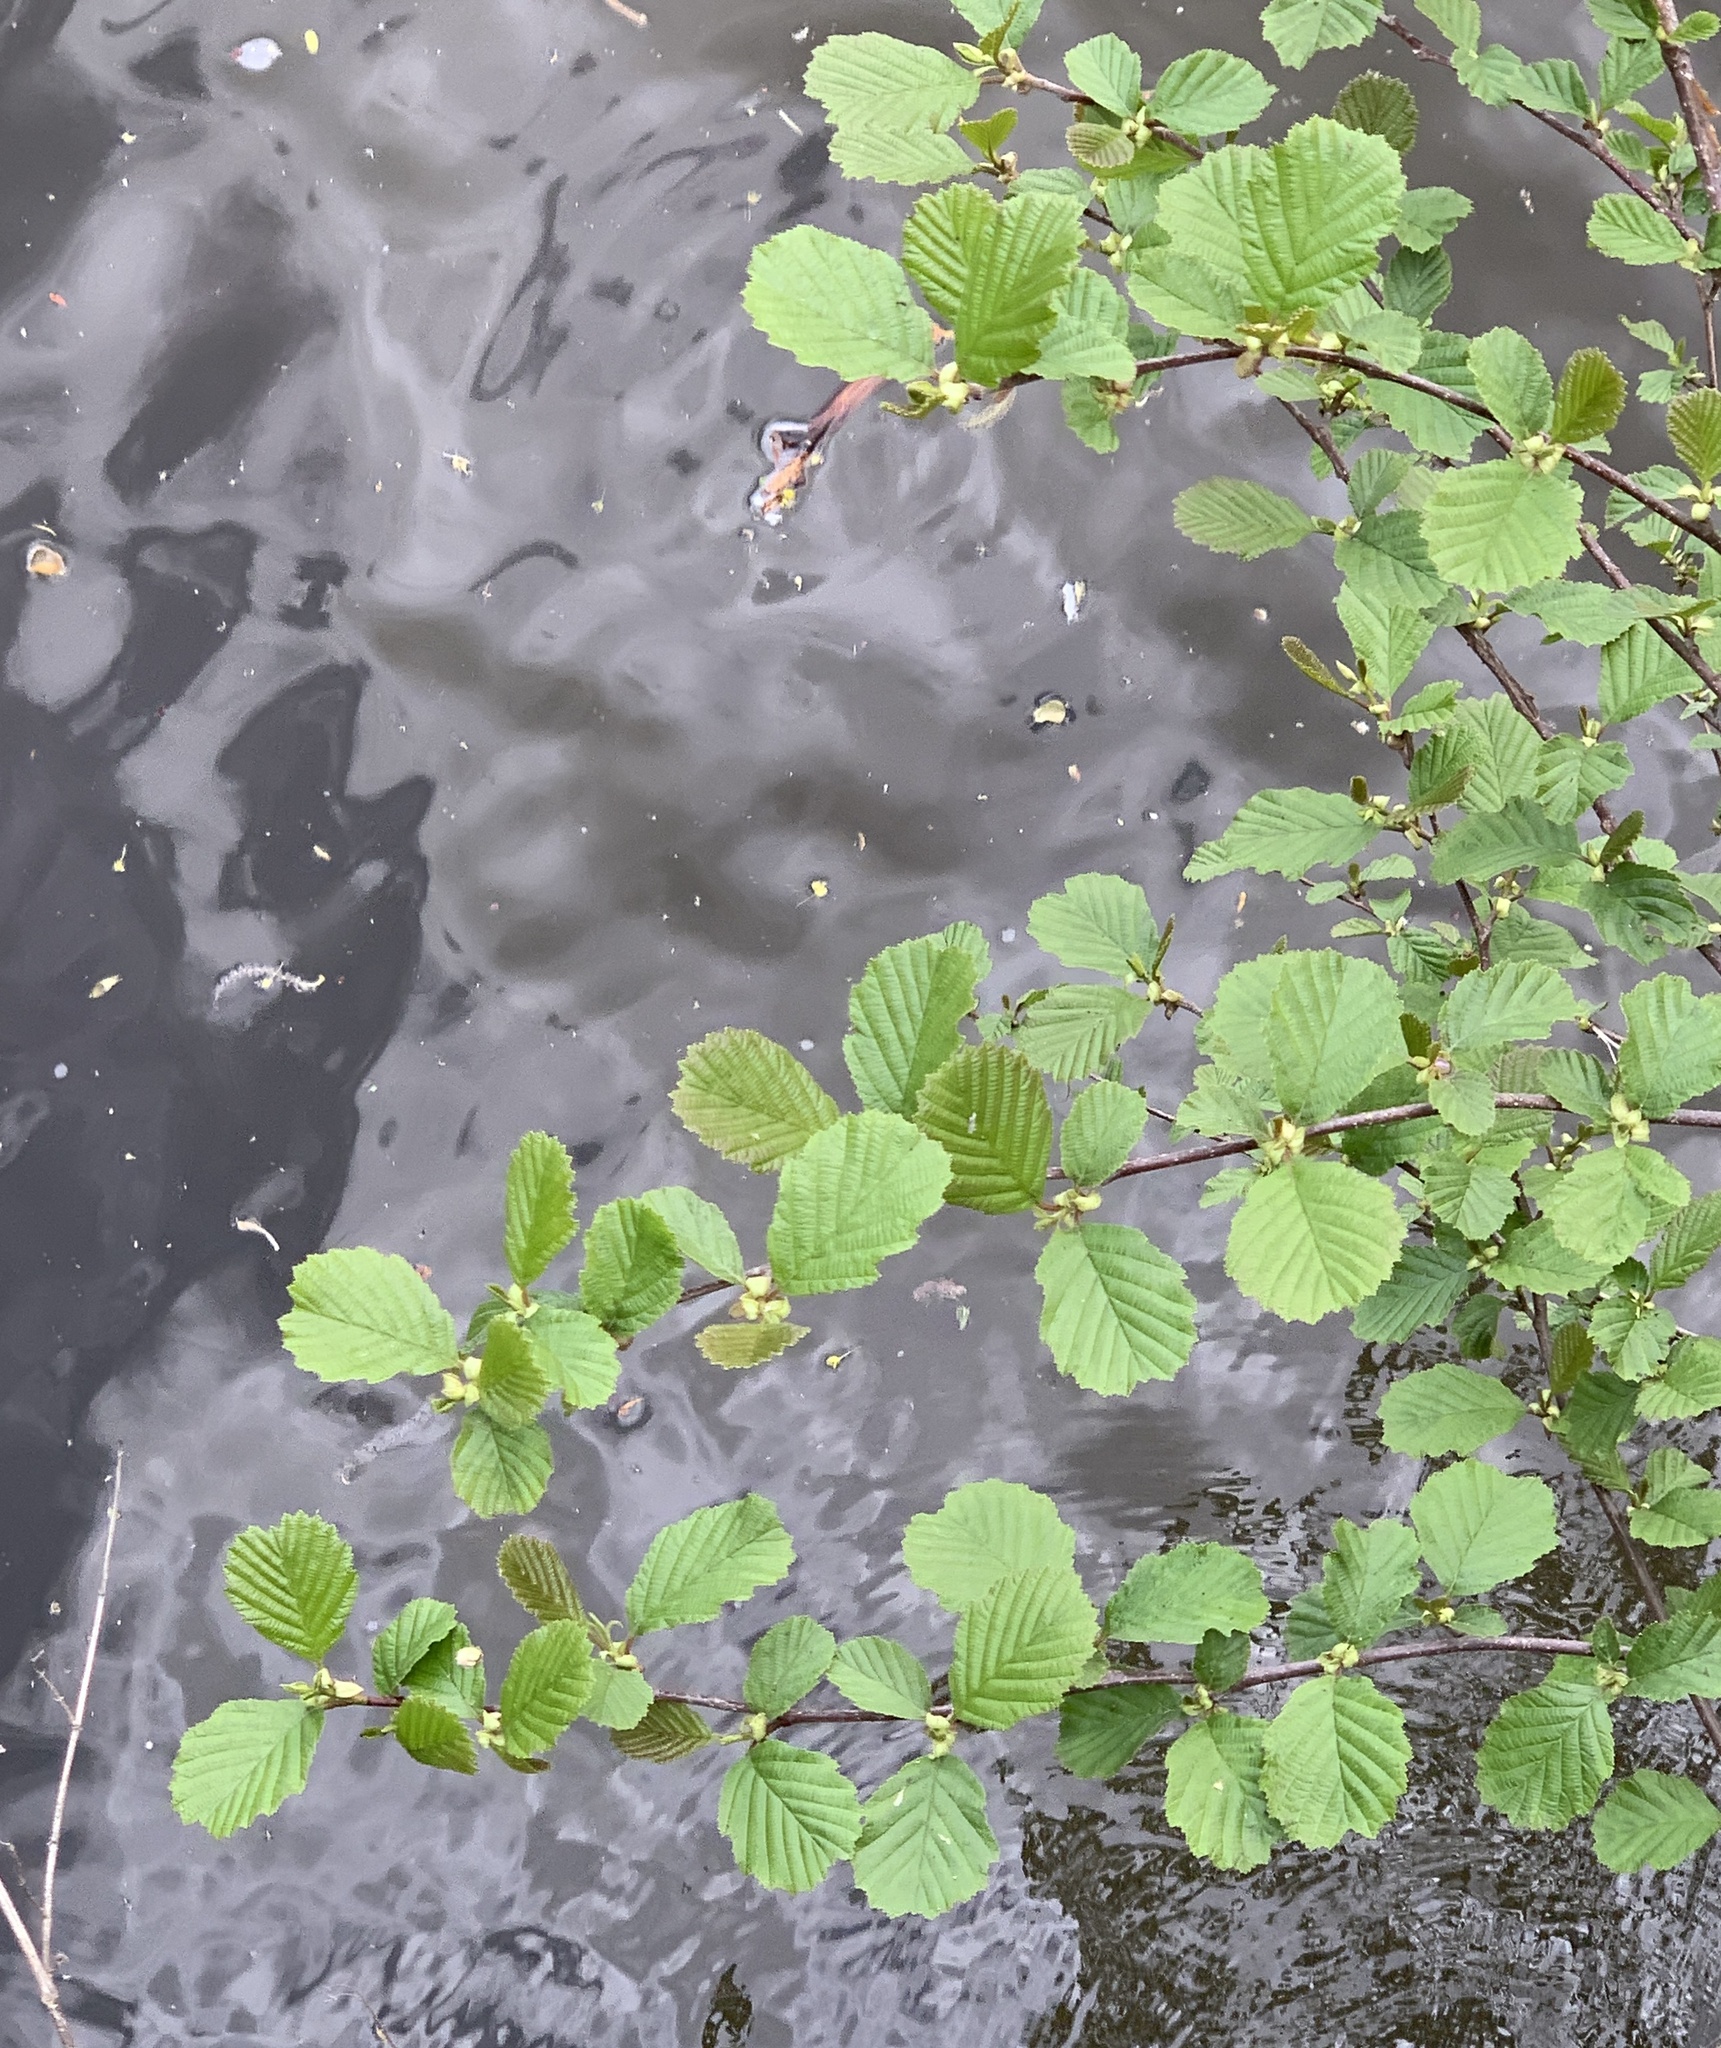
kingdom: Plantae
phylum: Tracheophyta
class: Magnoliopsida
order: Fagales
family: Betulaceae
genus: Alnus
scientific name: Alnus glutinosa
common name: Black alder
